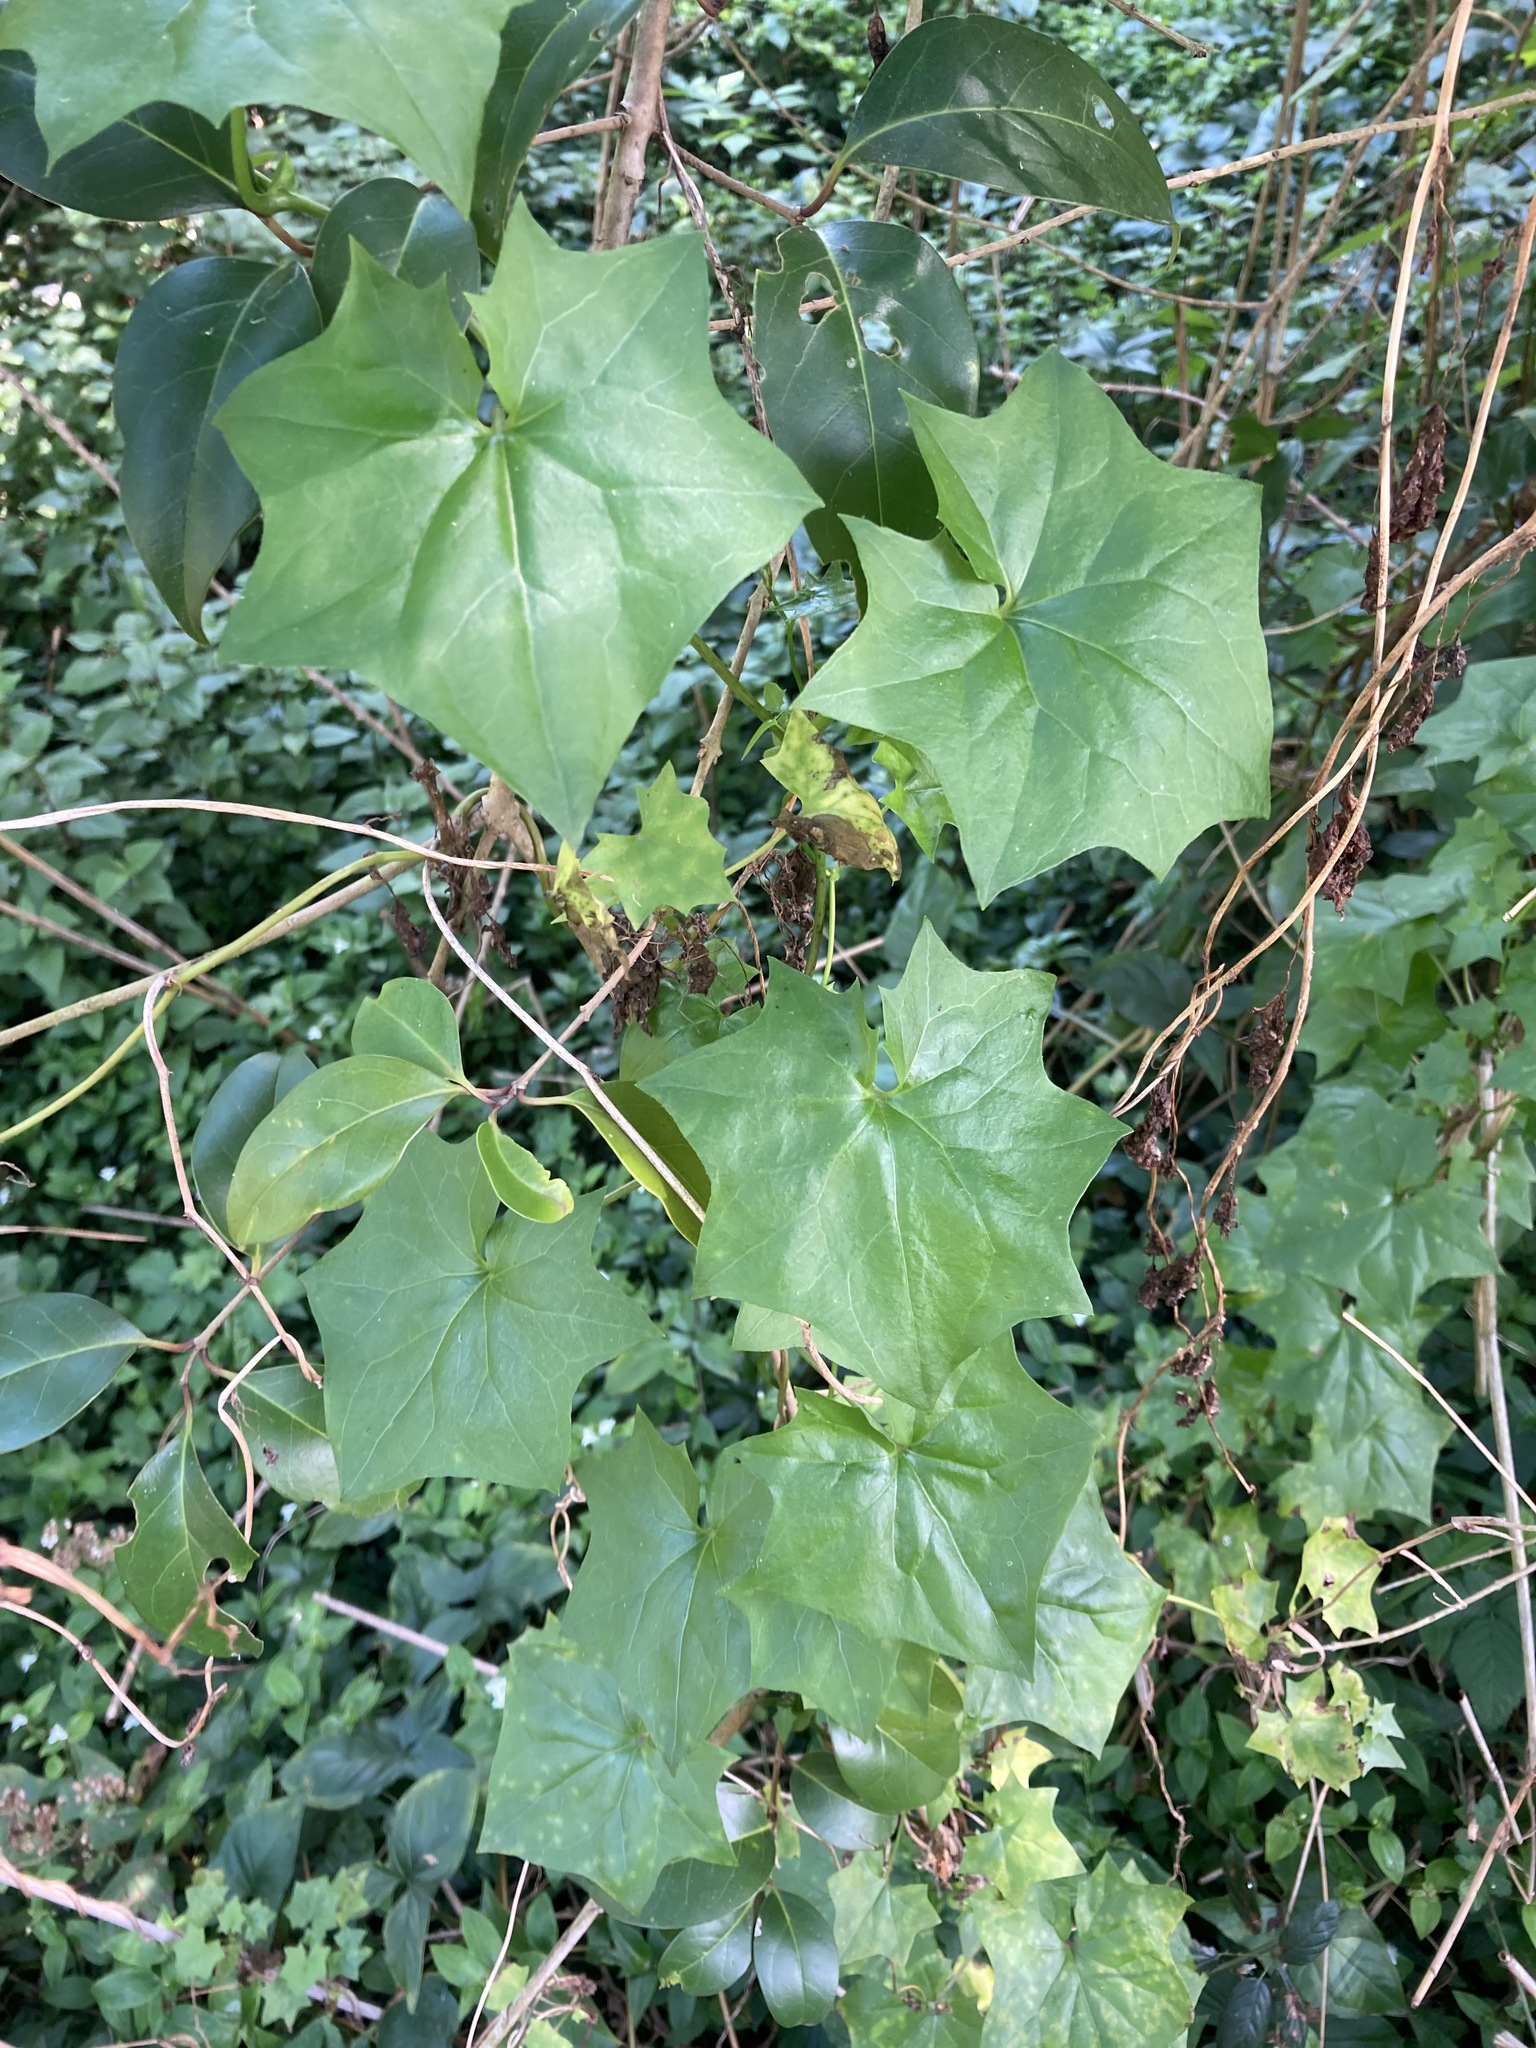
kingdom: Plantae
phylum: Tracheophyta
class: Magnoliopsida
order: Asterales
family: Asteraceae
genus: Delairea
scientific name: Delairea odorata
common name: Cape-ivy
